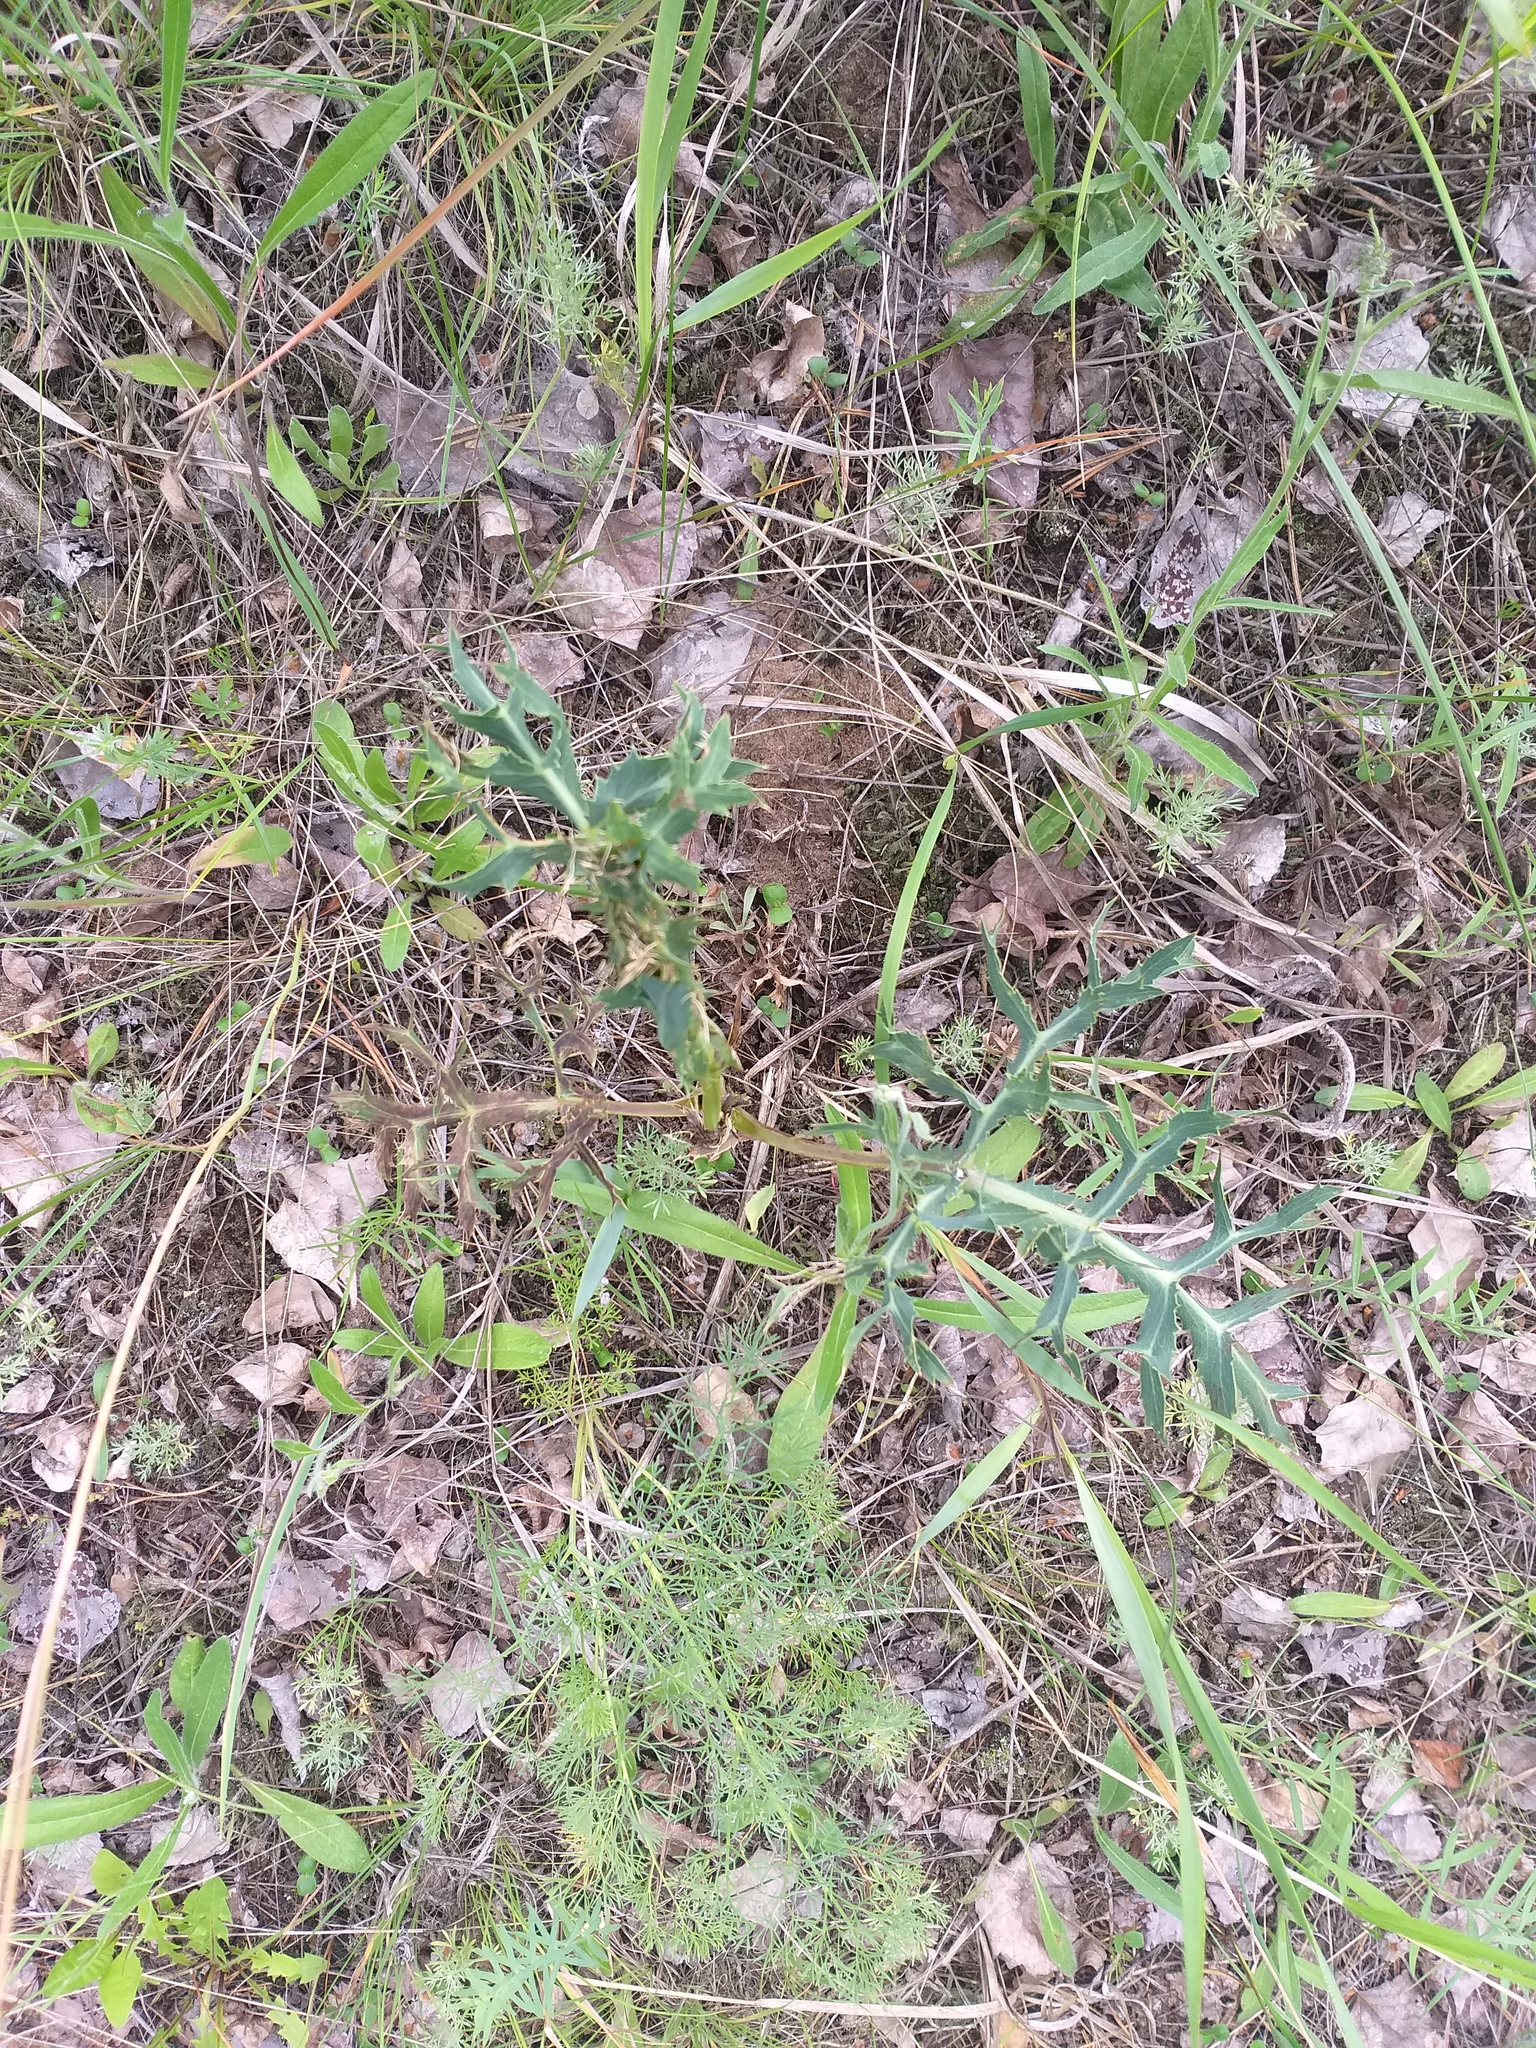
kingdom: Plantae
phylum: Tracheophyta
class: Magnoliopsida
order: Apiales
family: Apiaceae
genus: Eryngium
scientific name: Eryngium campestre
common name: Field eryngo
